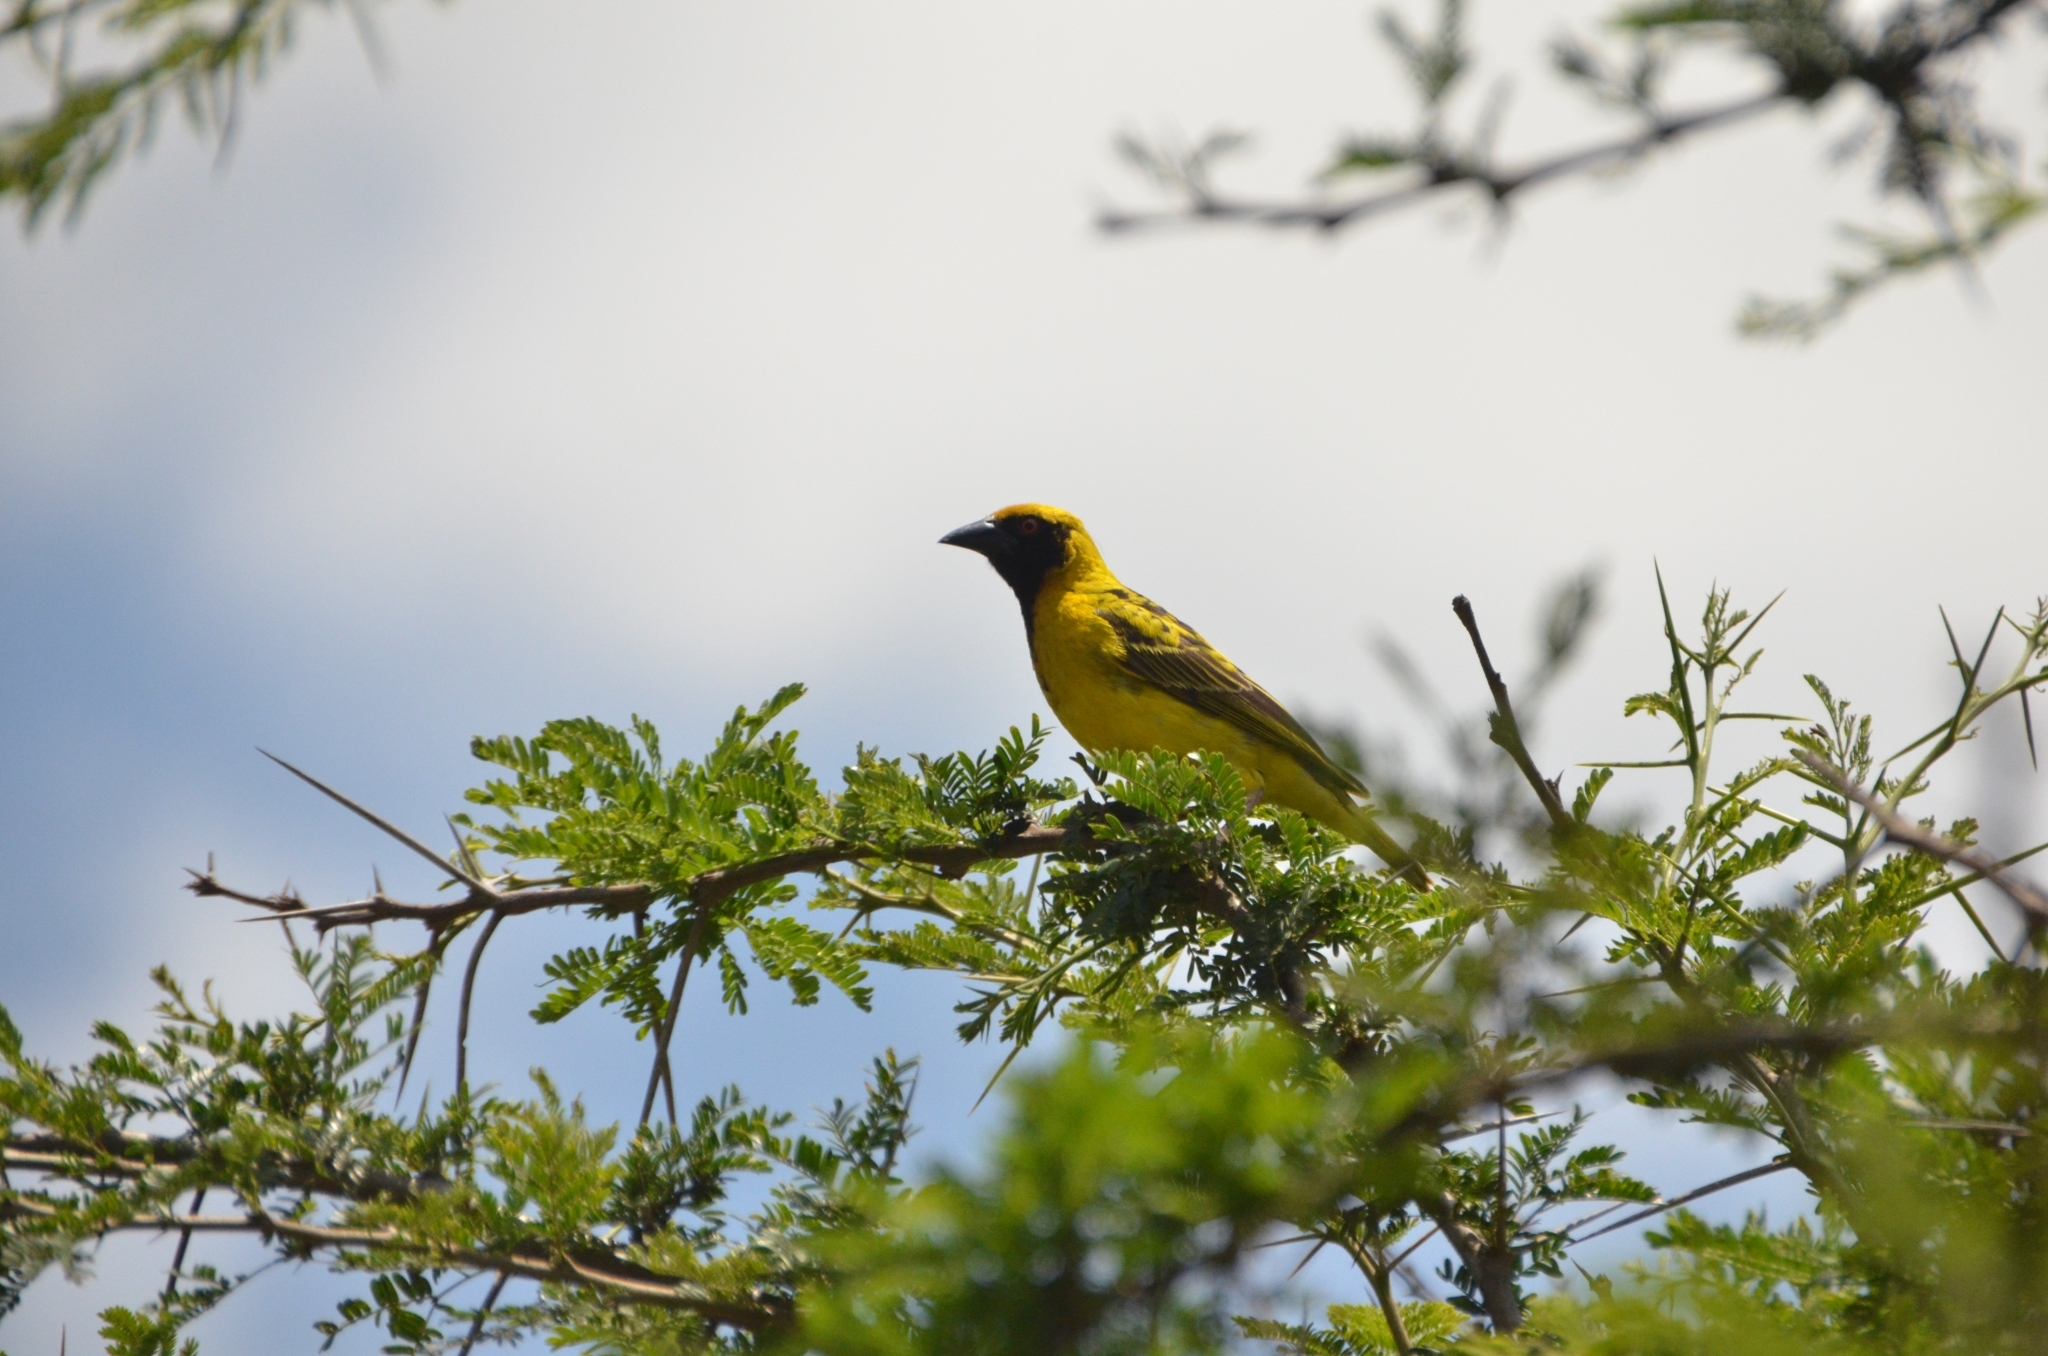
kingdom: Animalia
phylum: Chordata
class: Aves
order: Passeriformes
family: Ploceidae
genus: Ploceus
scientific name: Ploceus cucullatus
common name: Village weaver
